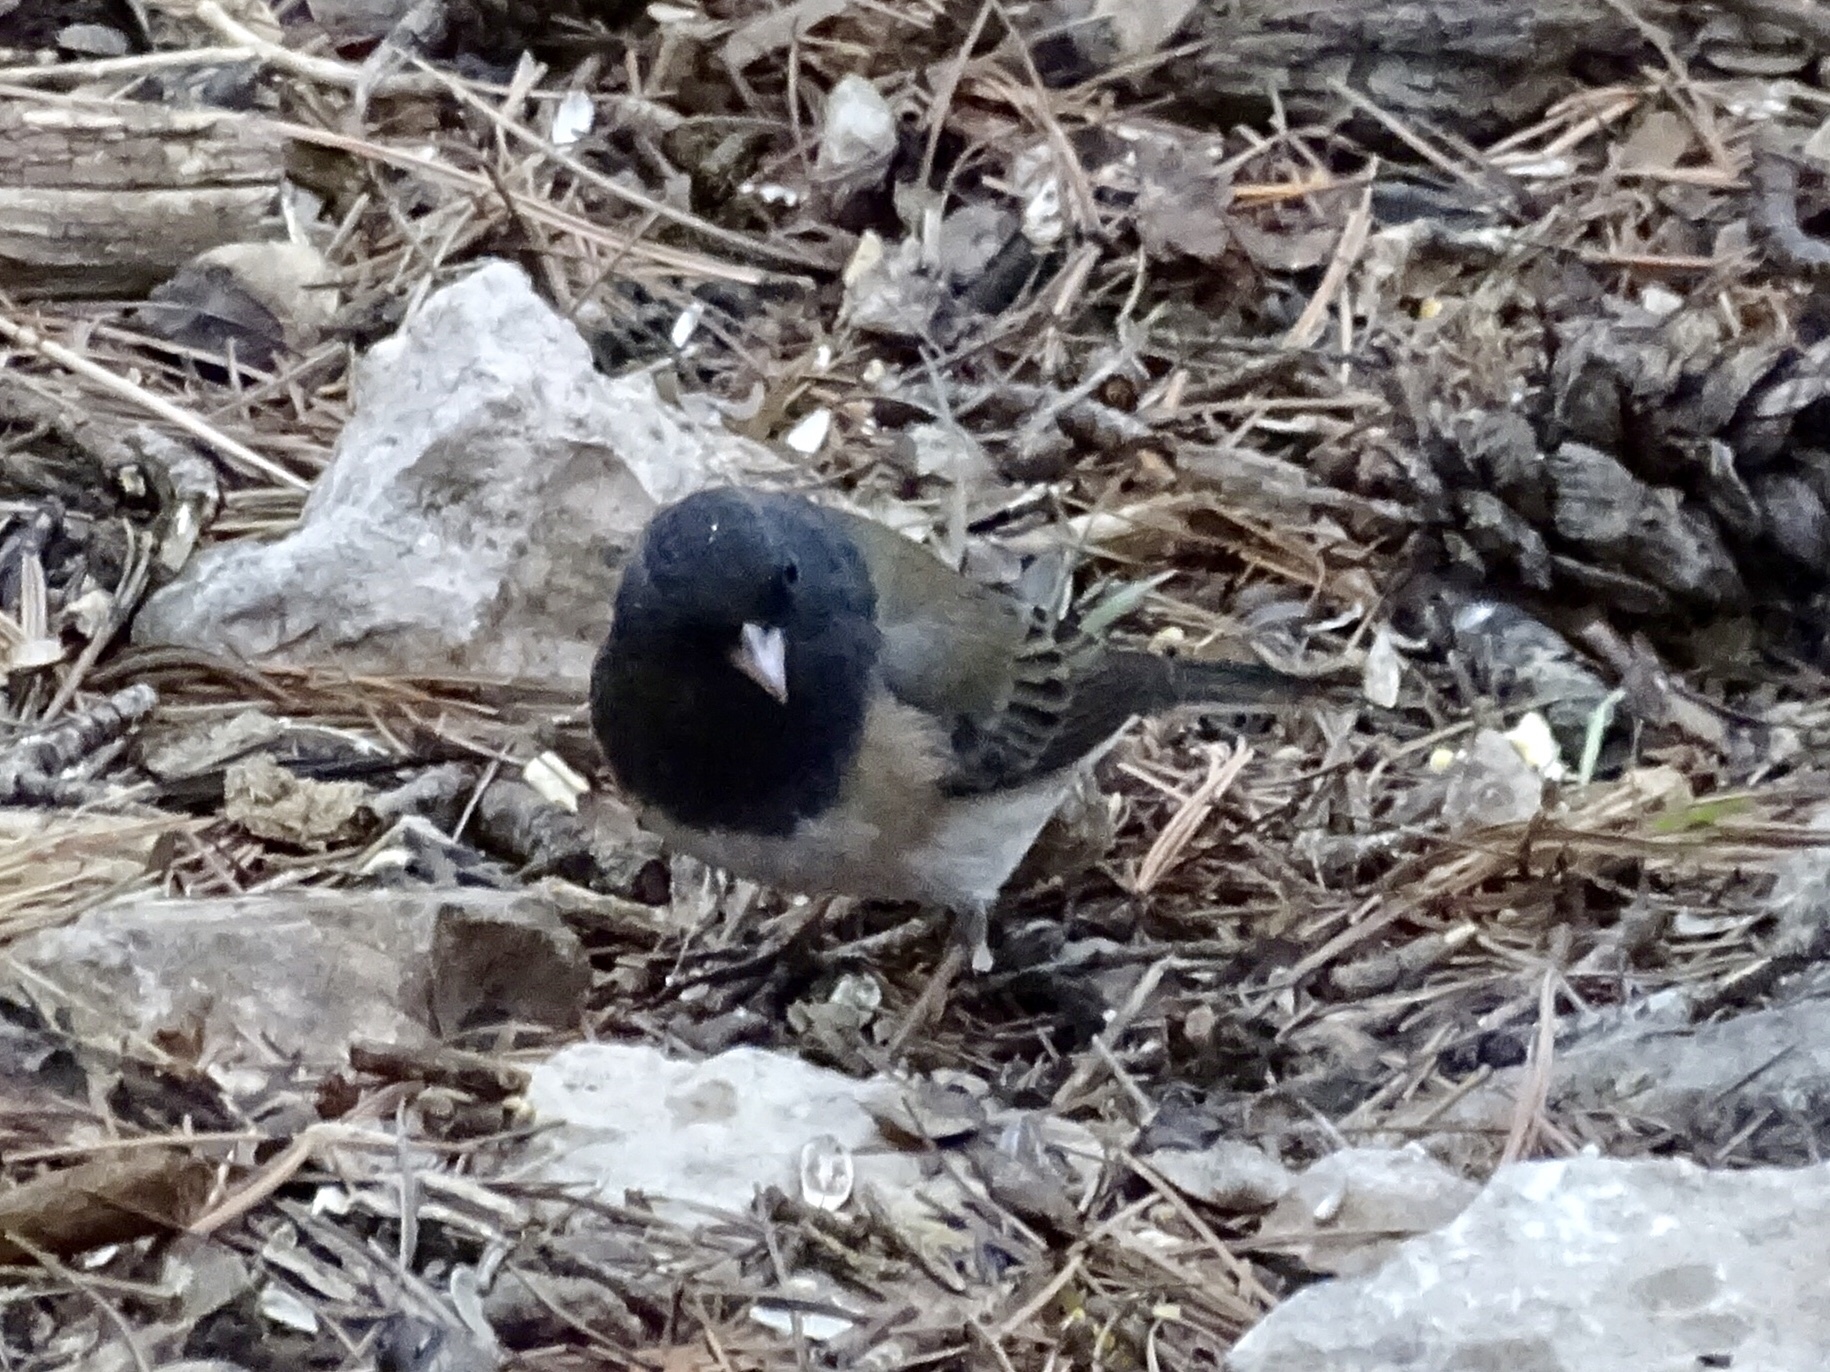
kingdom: Animalia
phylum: Chordata
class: Aves
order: Passeriformes
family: Passerellidae
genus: Junco
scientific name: Junco hyemalis
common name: Dark-eyed junco
